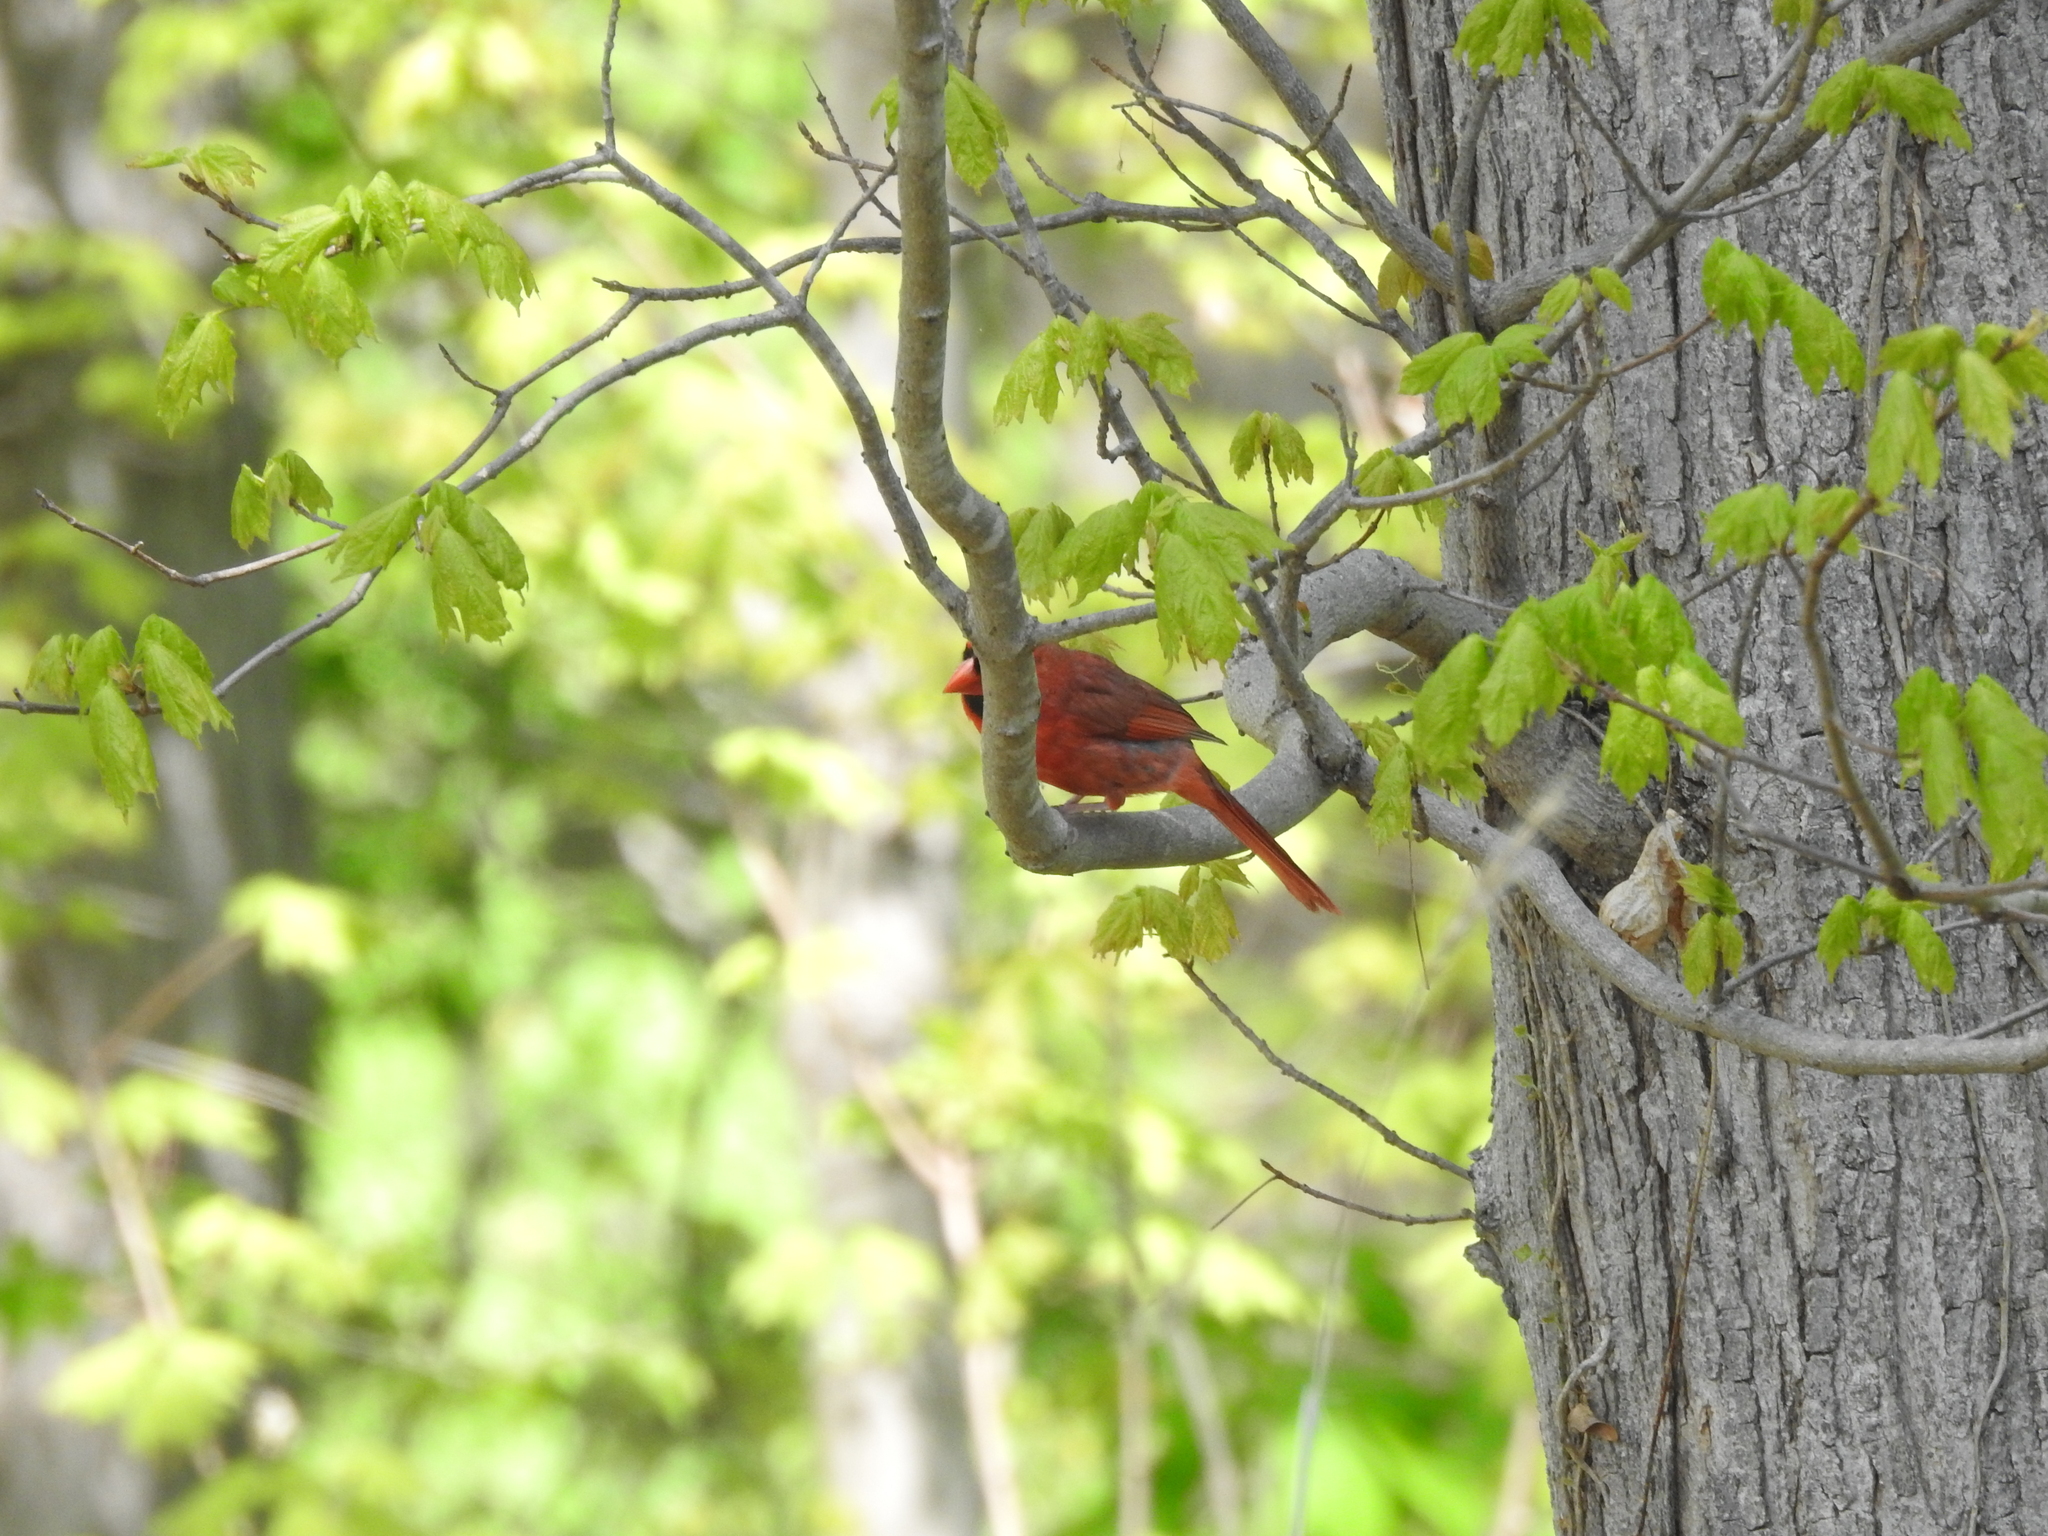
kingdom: Animalia
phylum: Chordata
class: Aves
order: Passeriformes
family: Cardinalidae
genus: Cardinalis
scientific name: Cardinalis cardinalis
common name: Northern cardinal
